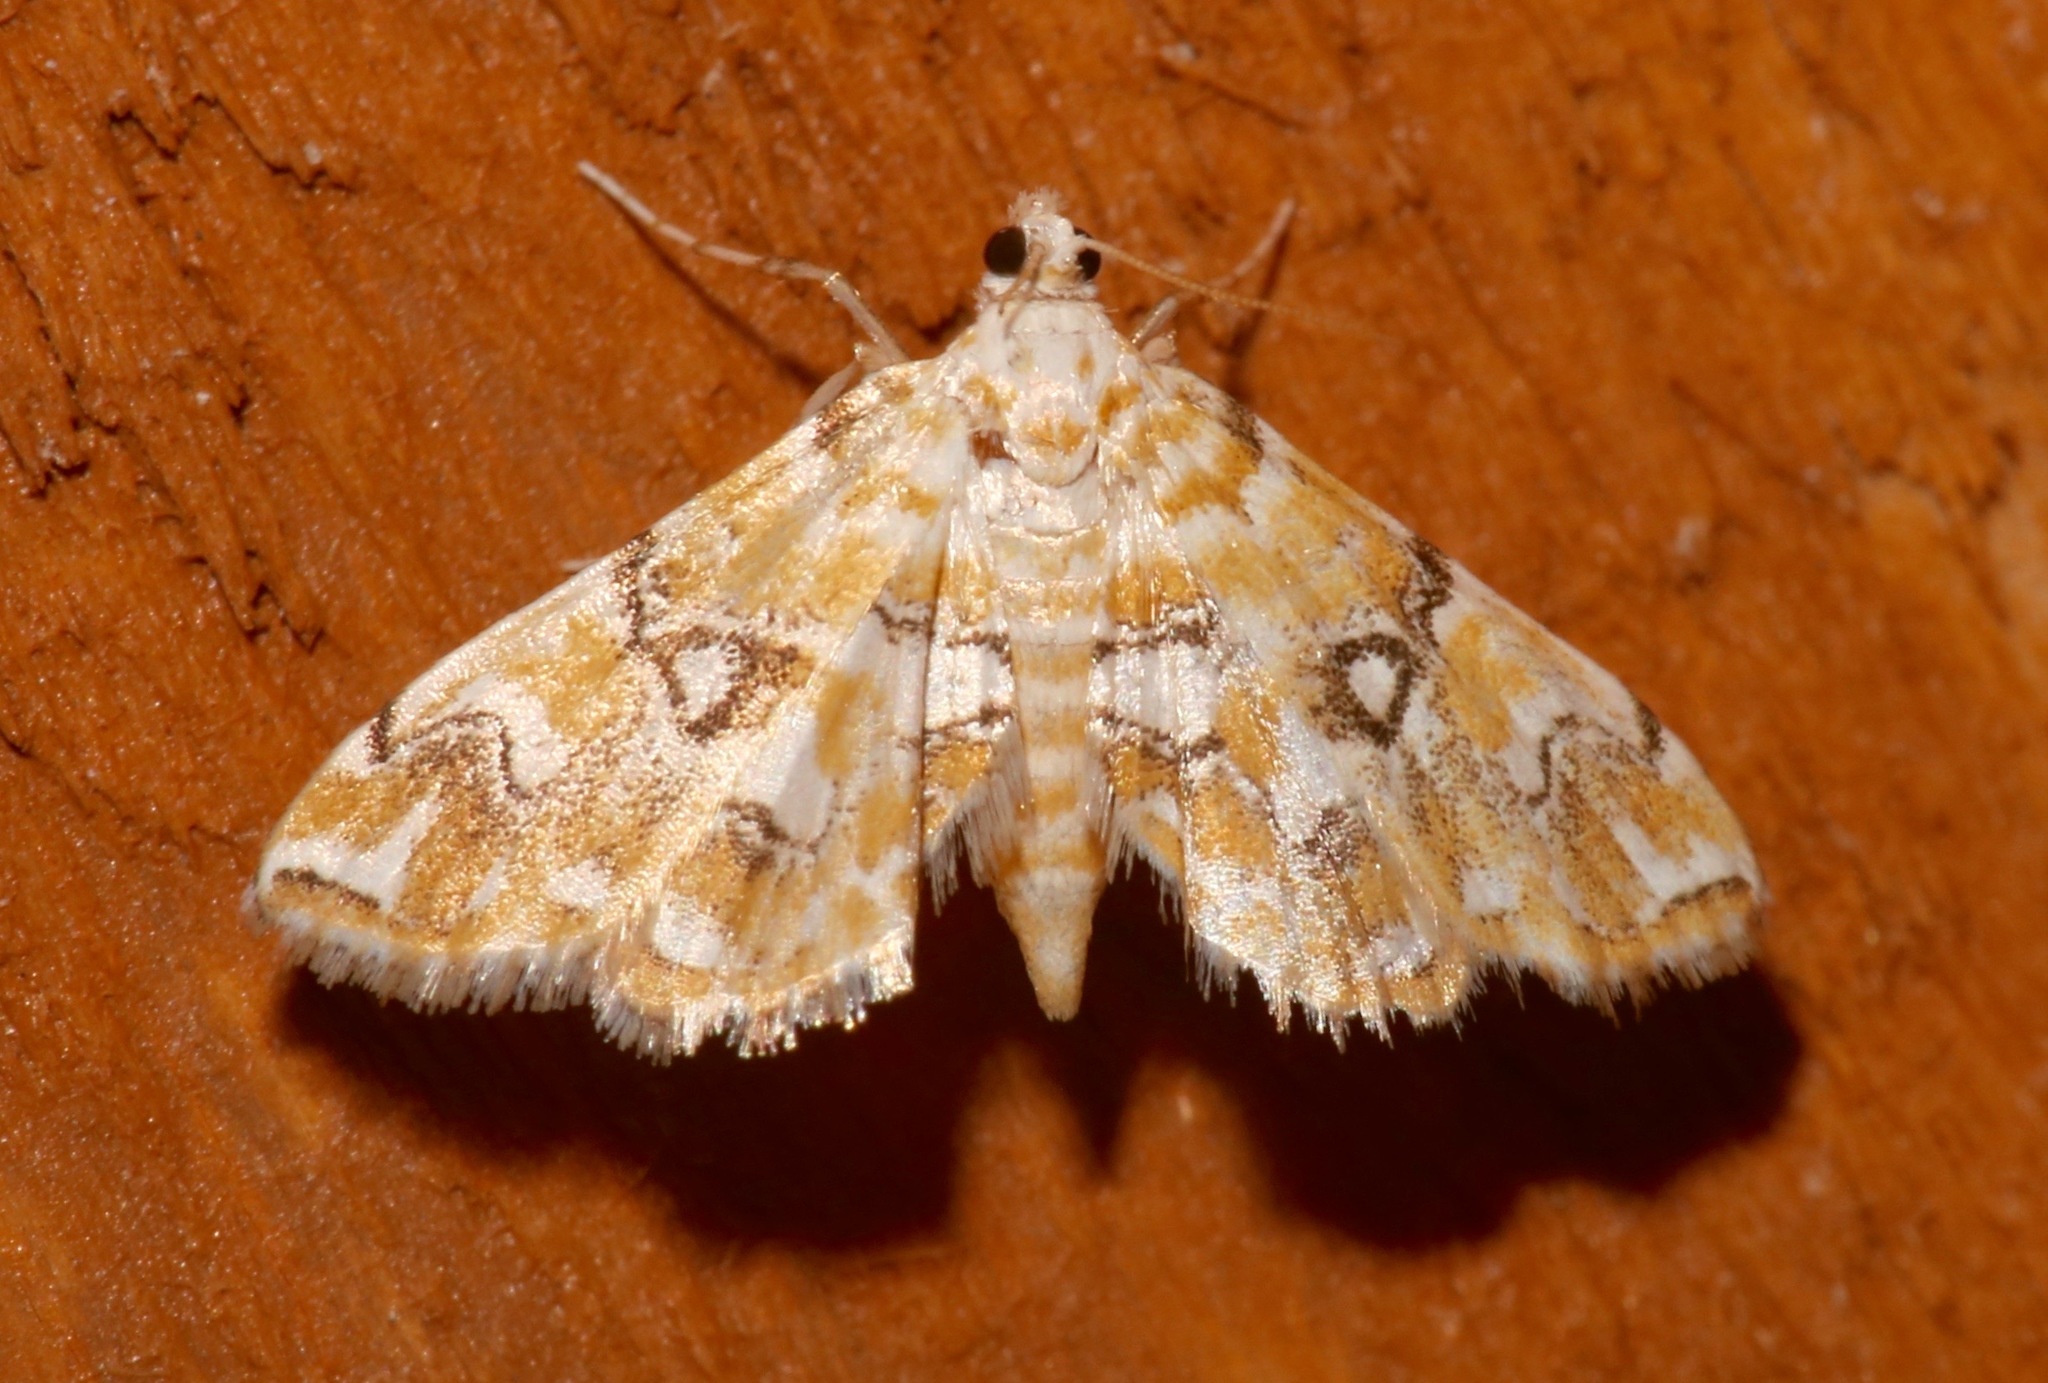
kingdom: Animalia
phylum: Arthropoda
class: Insecta
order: Lepidoptera
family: Crambidae
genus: Elophila
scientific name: Elophila icciusalis
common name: Pondside pyralid moth
